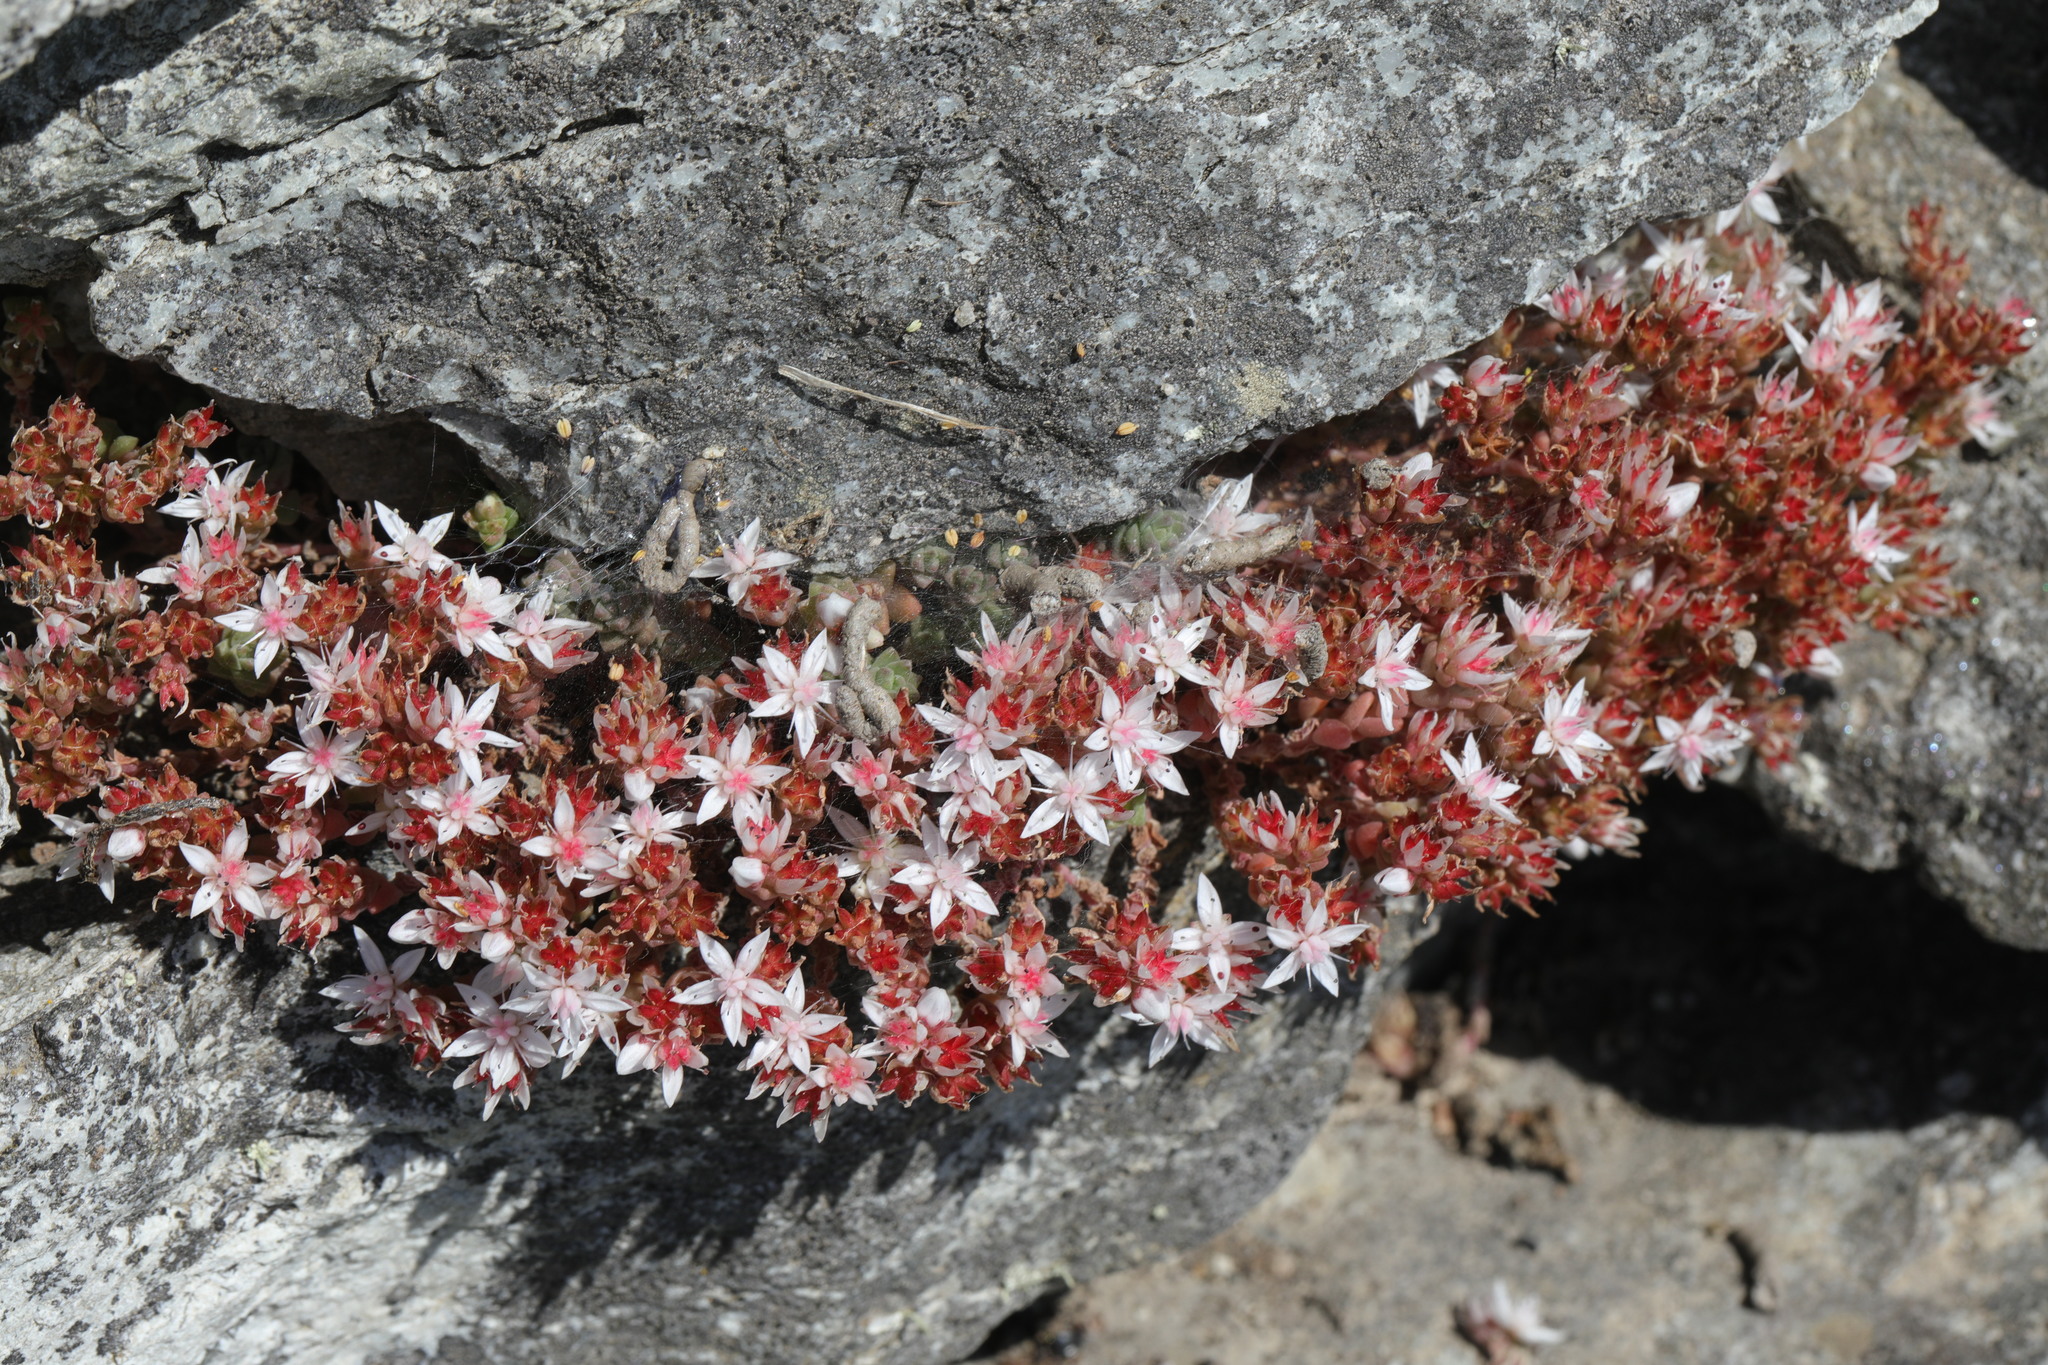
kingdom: Plantae
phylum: Tracheophyta
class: Magnoliopsida
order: Saxifragales
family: Crassulaceae
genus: Sedum
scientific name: Sedum anglicum
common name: English stonecrop
